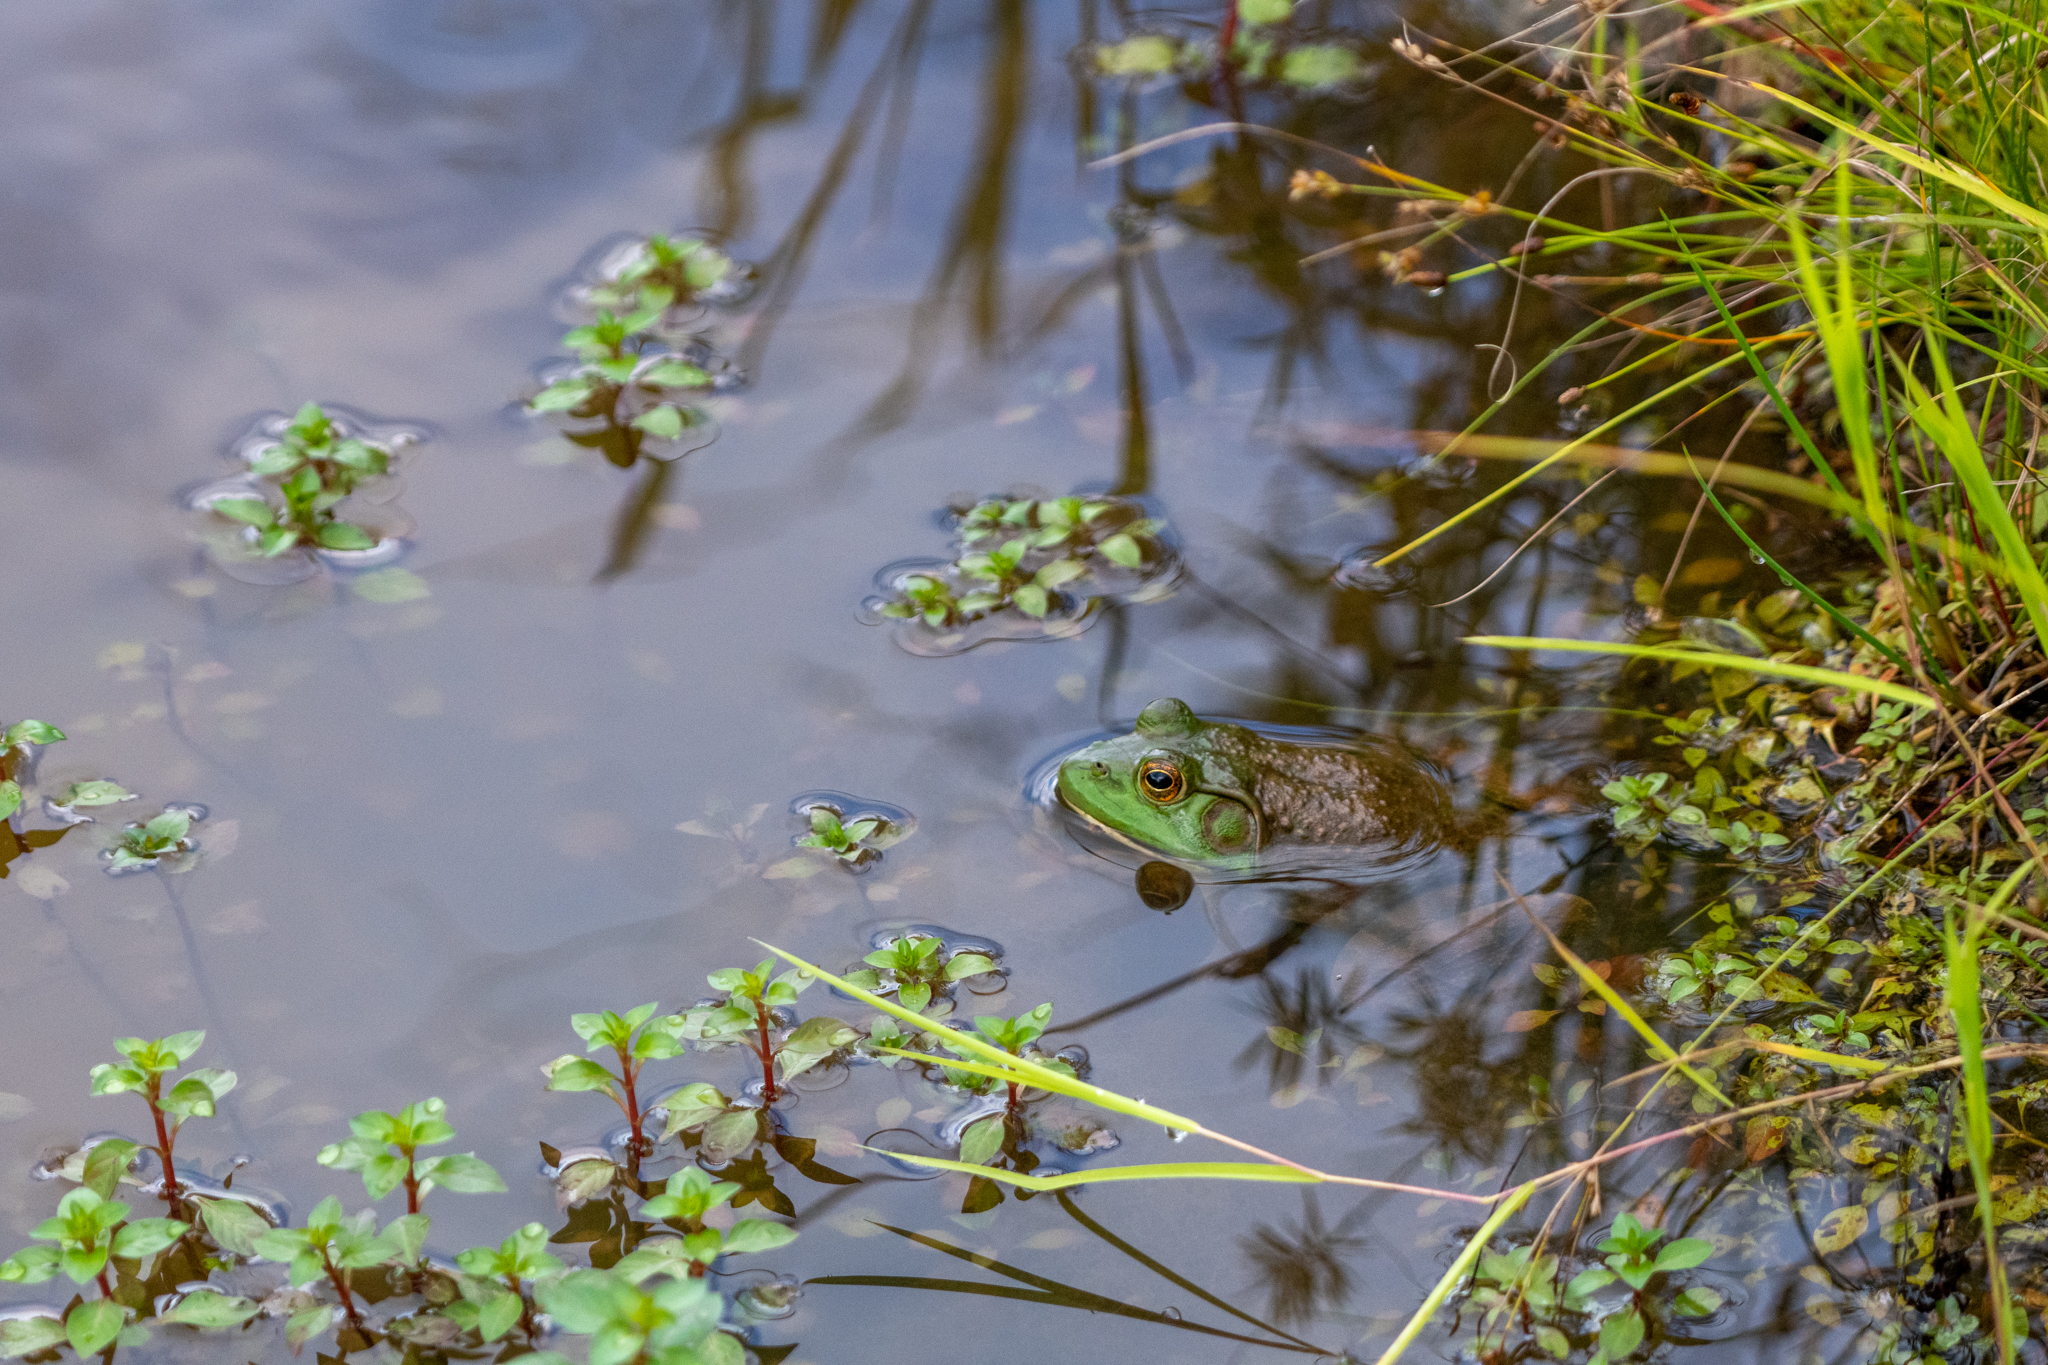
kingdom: Animalia
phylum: Chordata
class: Amphibia
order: Anura
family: Ranidae
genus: Lithobates
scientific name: Lithobates catesbeianus
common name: American bullfrog
